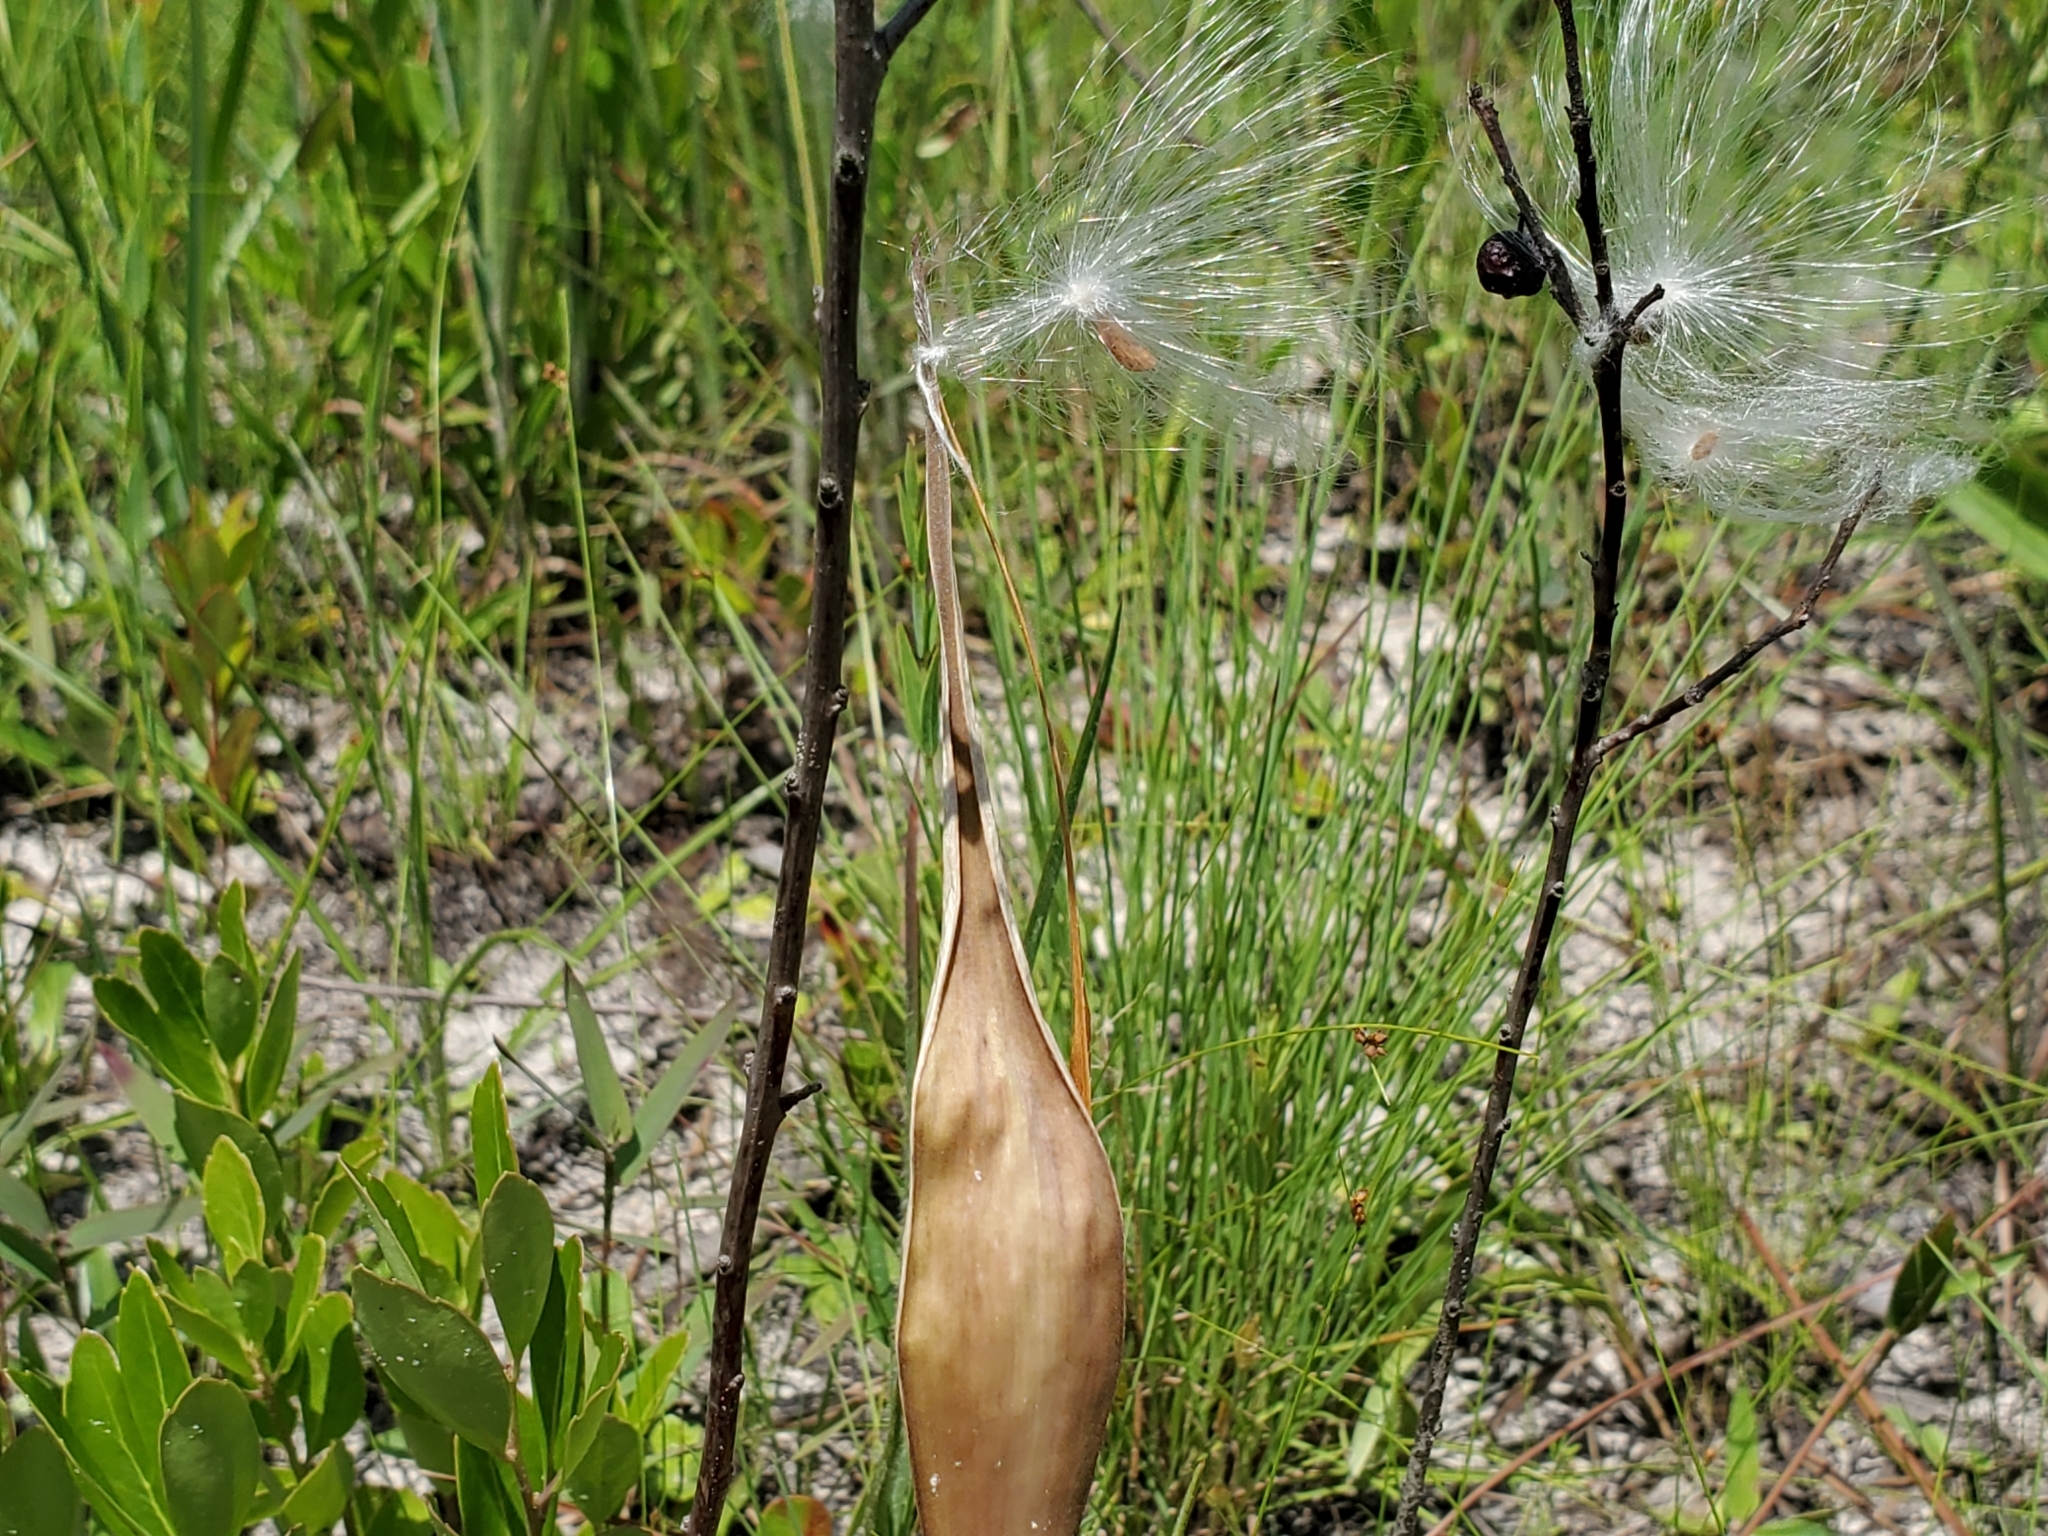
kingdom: Plantae
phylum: Tracheophyta
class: Magnoliopsida
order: Gentianales
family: Apocynaceae
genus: Asclepias
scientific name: Asclepias michauxii
